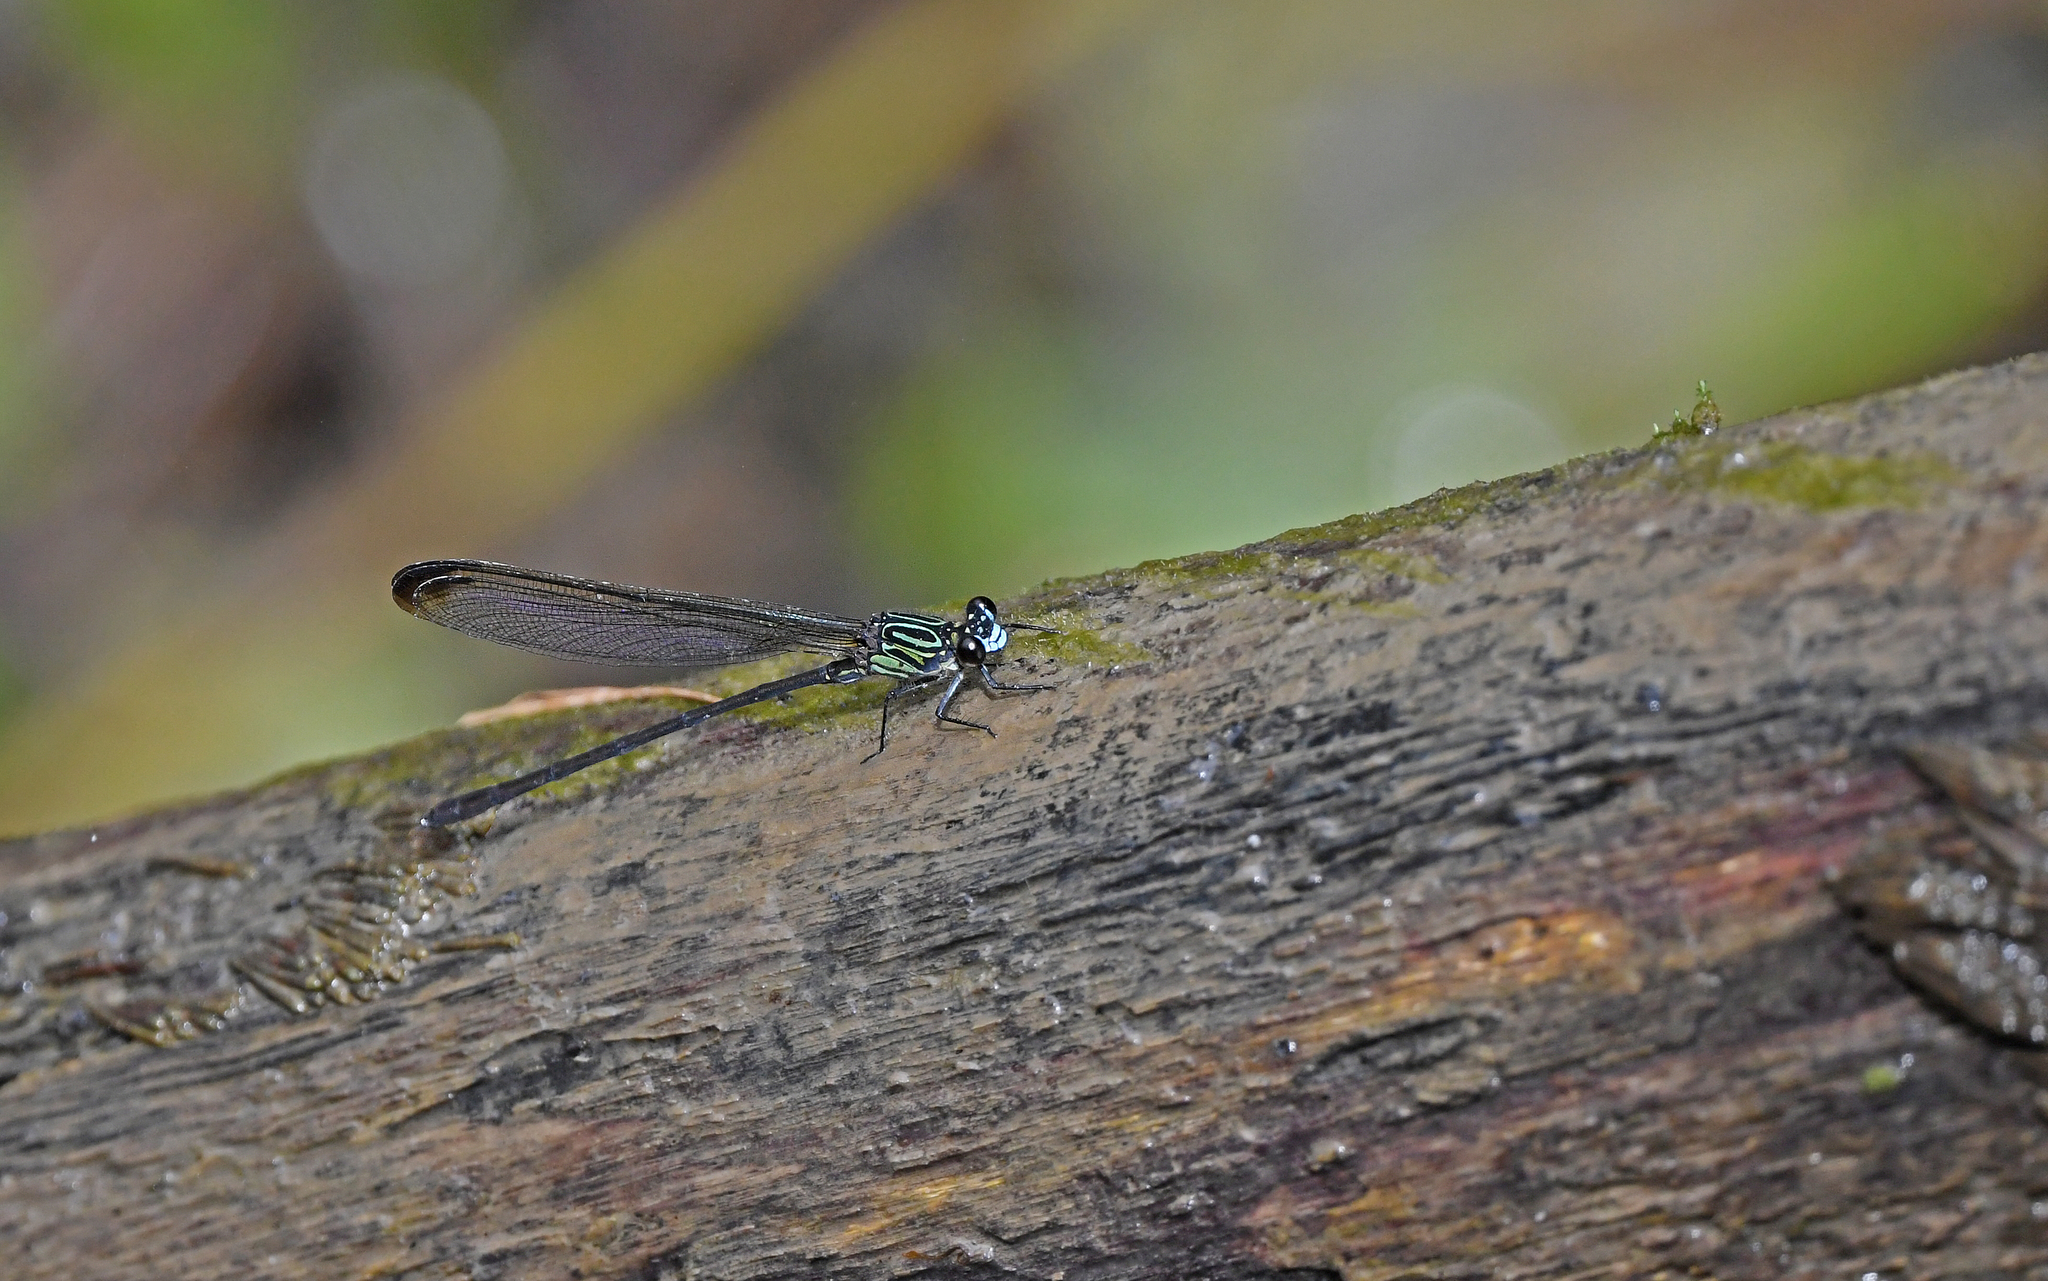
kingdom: Animalia
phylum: Arthropoda
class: Insecta
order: Odonata
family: Polythoridae
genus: Euthore
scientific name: Euthore terminalis
